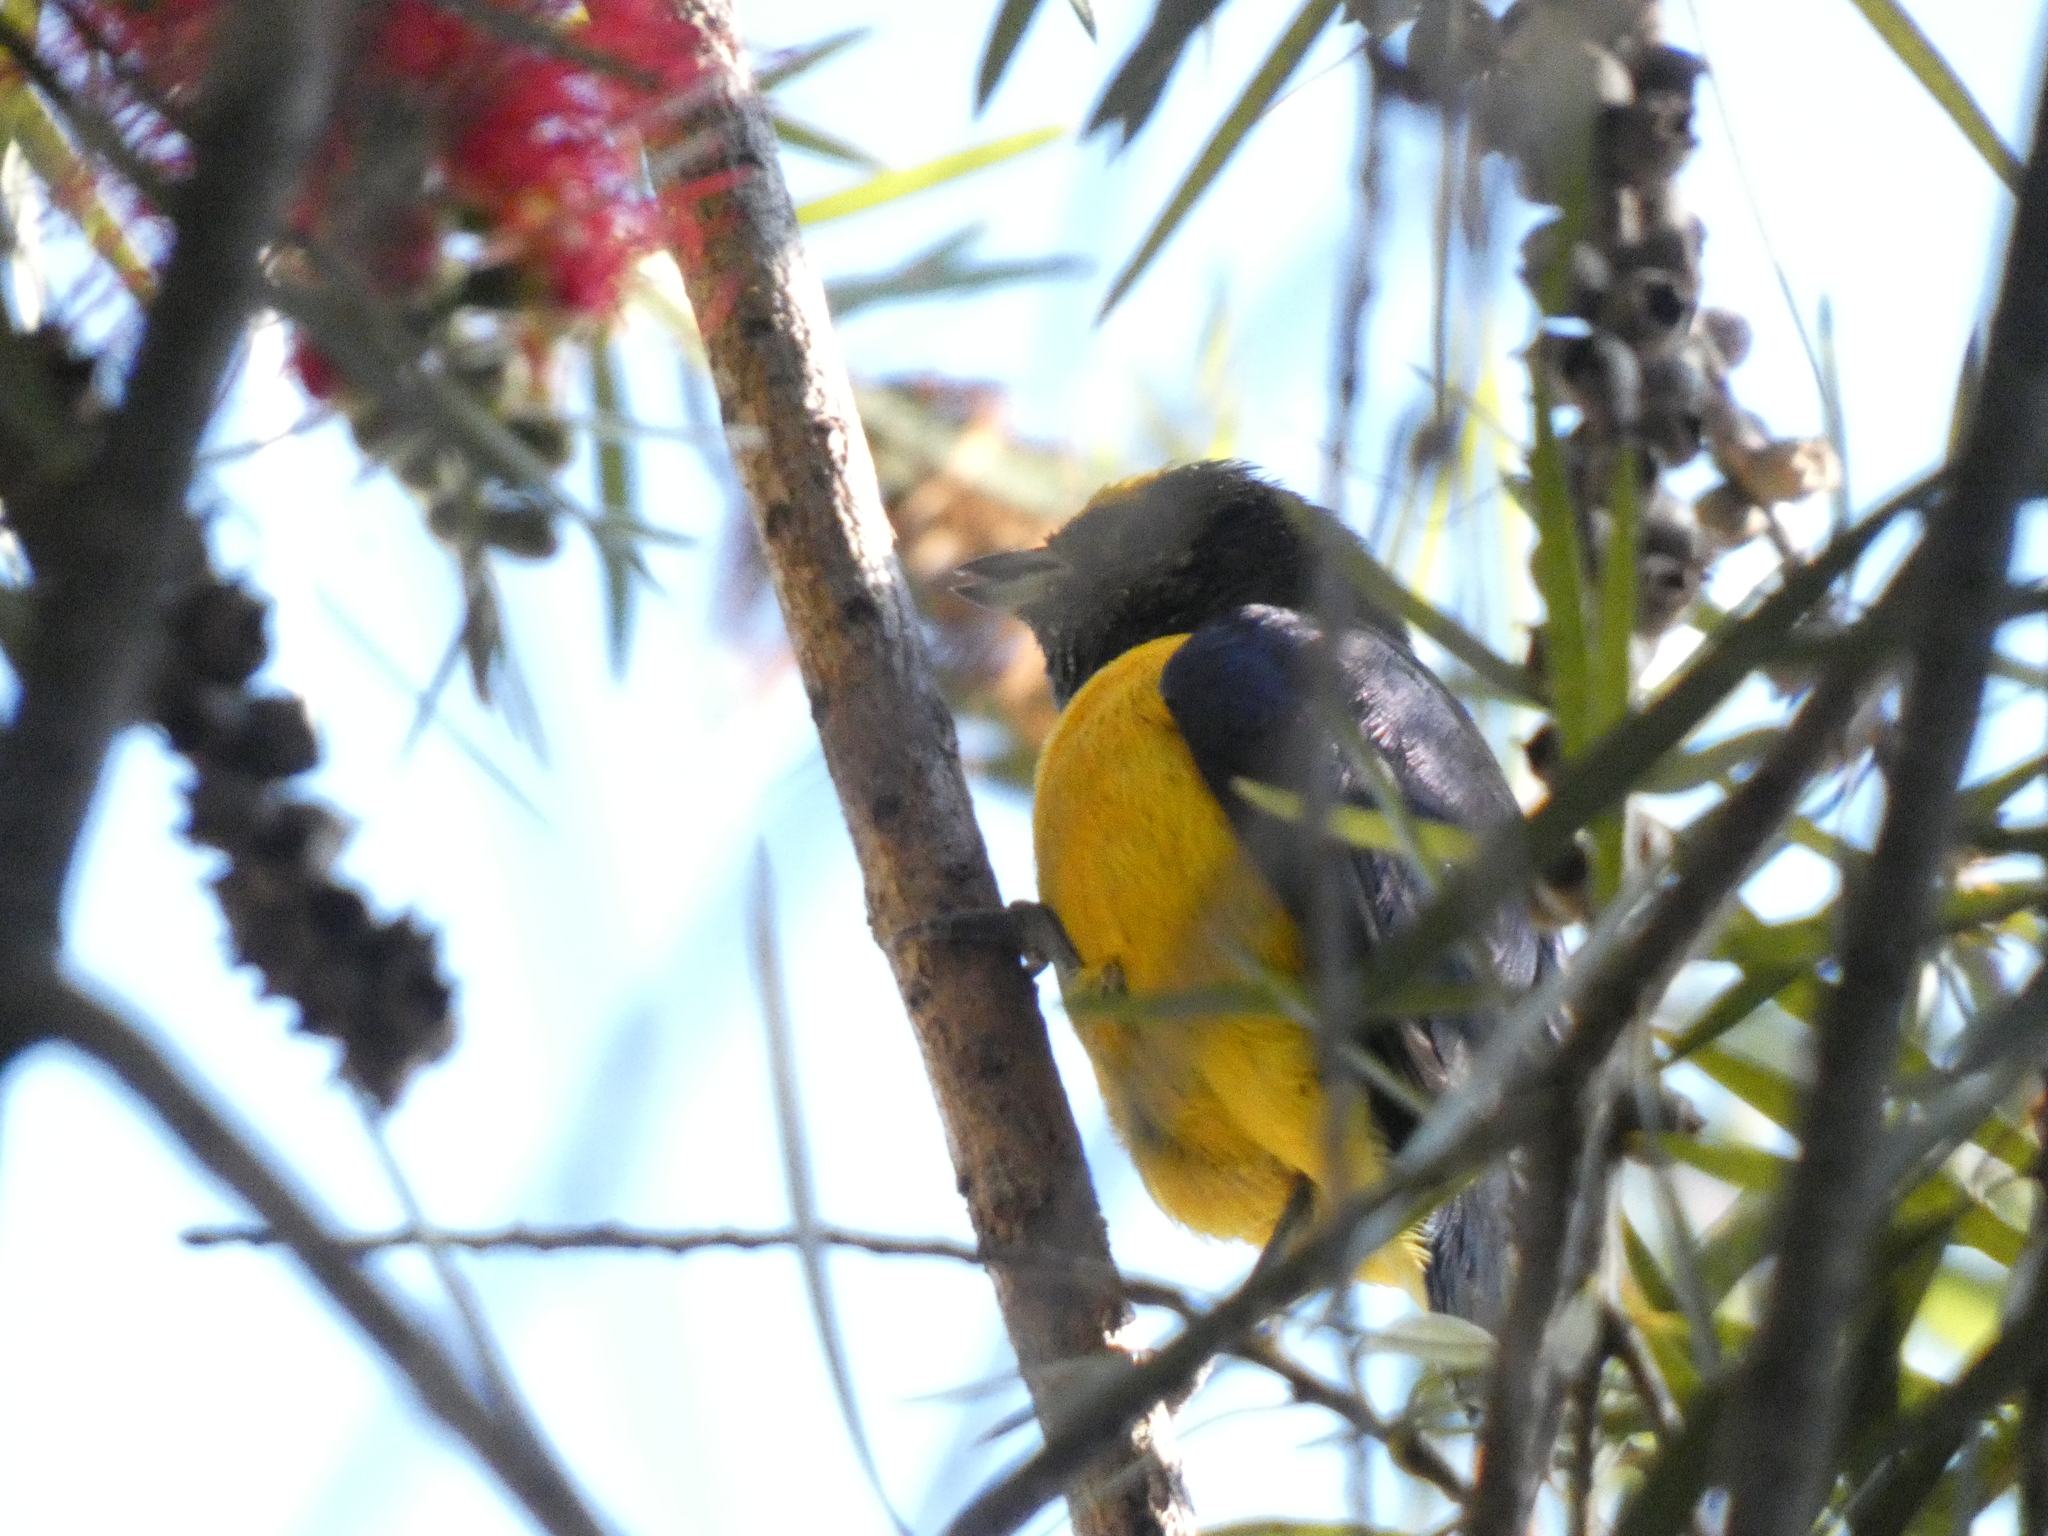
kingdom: Animalia
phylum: Chordata
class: Aves
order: Passeriformes
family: Fringillidae
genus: Euphonia
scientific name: Euphonia chlorotica
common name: Purple-throated euphonia
